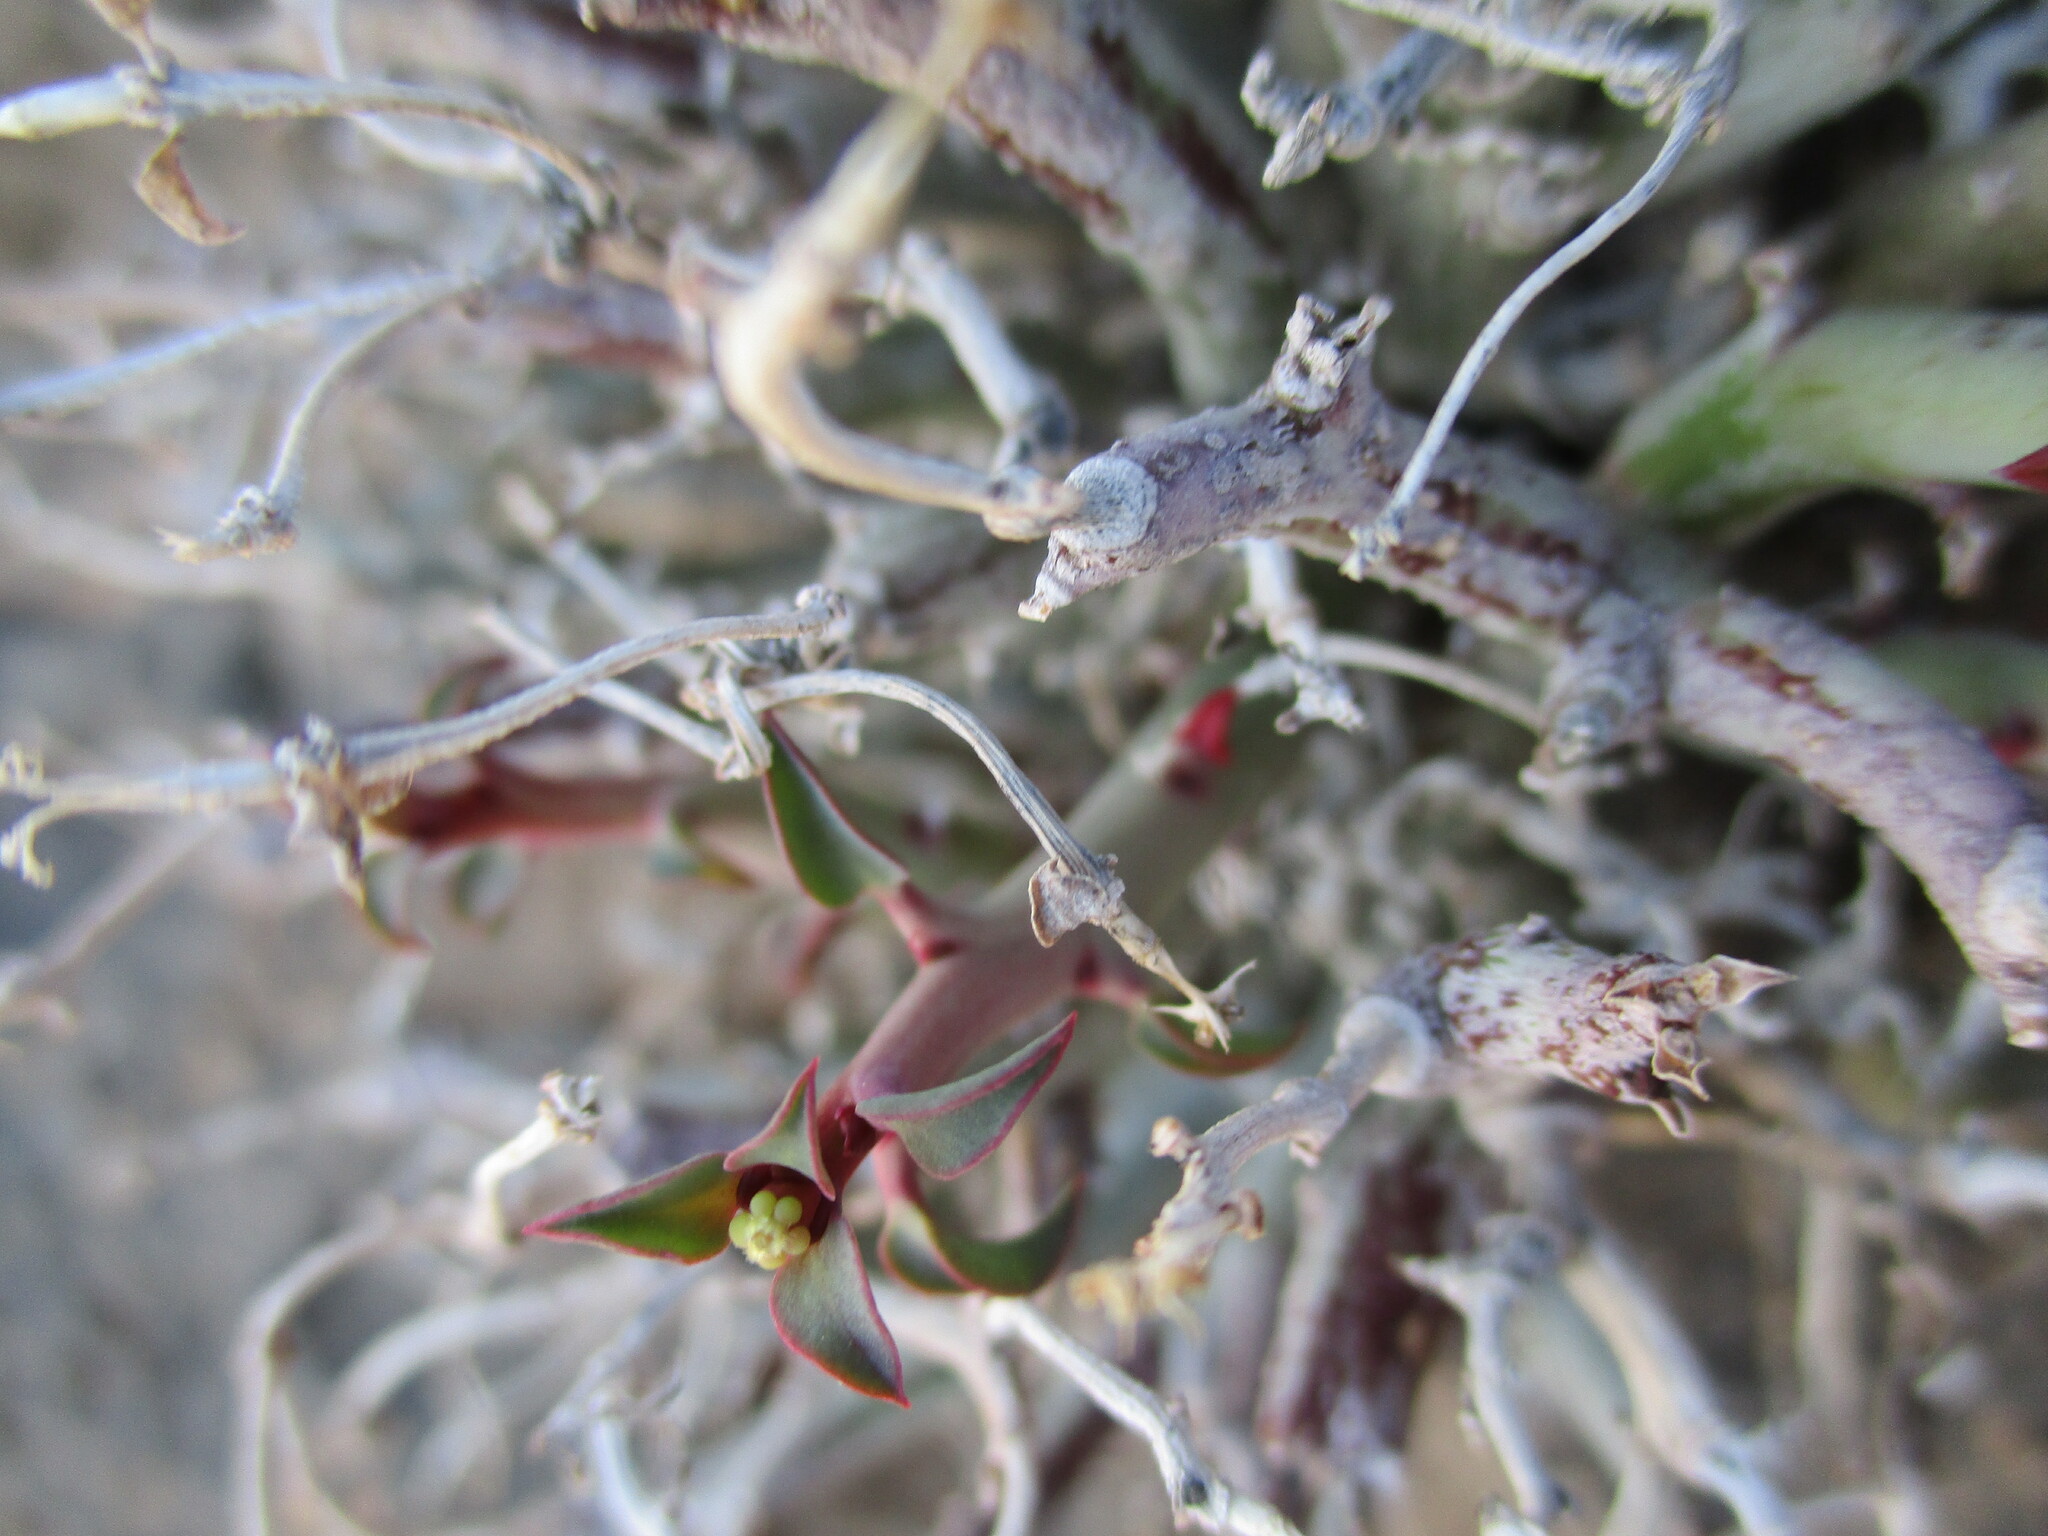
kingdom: Plantae
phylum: Tracheophyta
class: Magnoliopsida
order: Malpighiales
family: Euphorbiaceae
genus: Euphorbia
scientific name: Euphorbia gariepina
